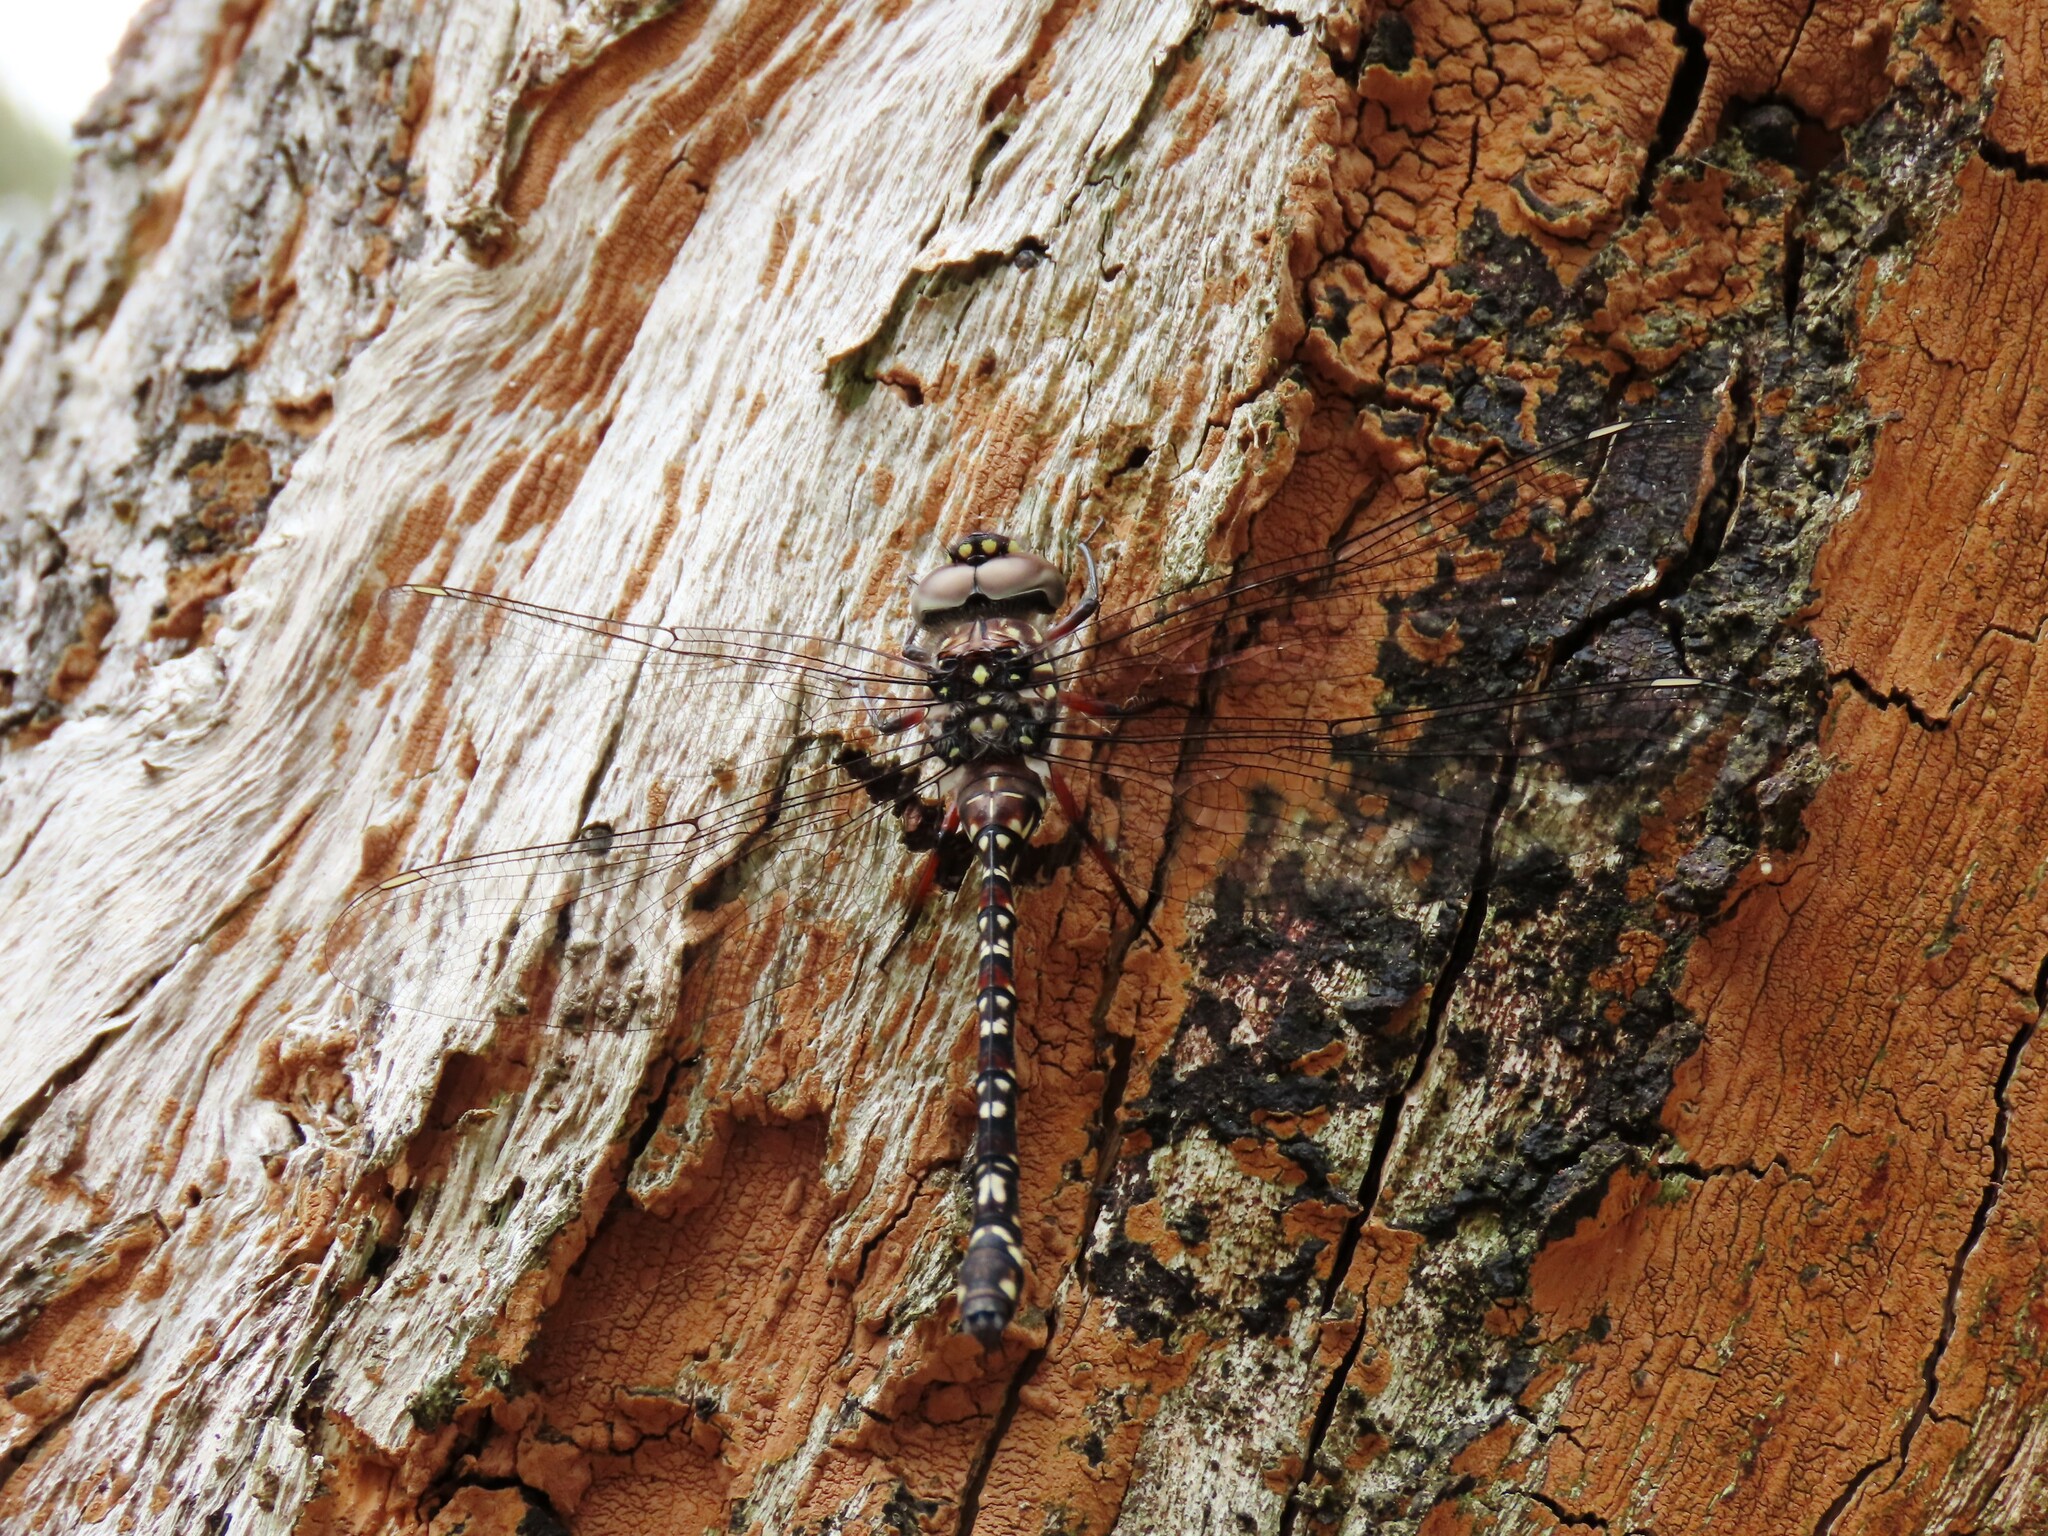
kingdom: Animalia
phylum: Arthropoda
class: Insecta
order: Odonata
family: Aeshnidae
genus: Austroaeschna
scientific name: Austroaeschna multipunctata
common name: Multi-spotted darner
